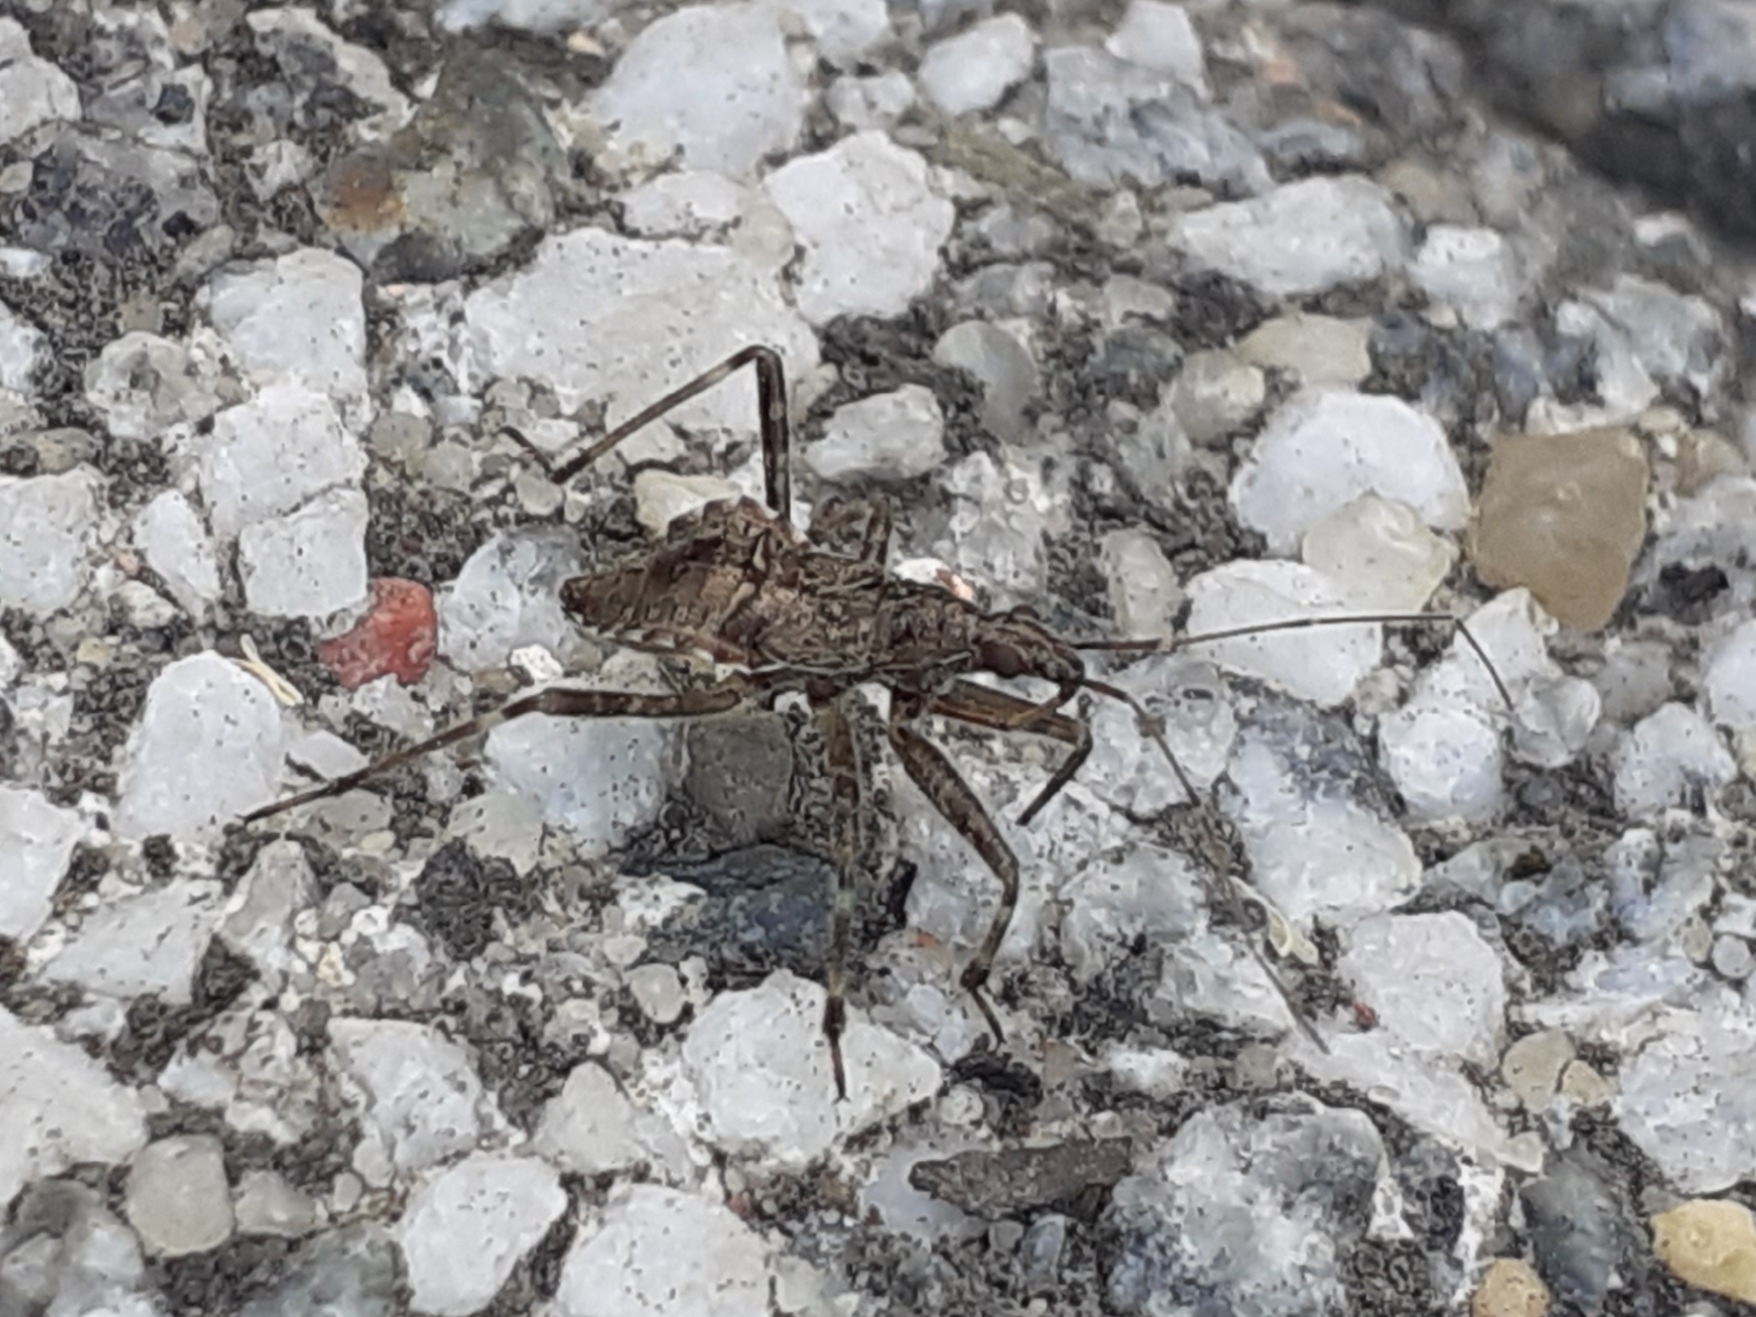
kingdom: Animalia
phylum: Arthropoda
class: Insecta
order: Hemiptera
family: Nabidae
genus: Himacerus
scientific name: Himacerus apterus
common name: Tree damsel bug
